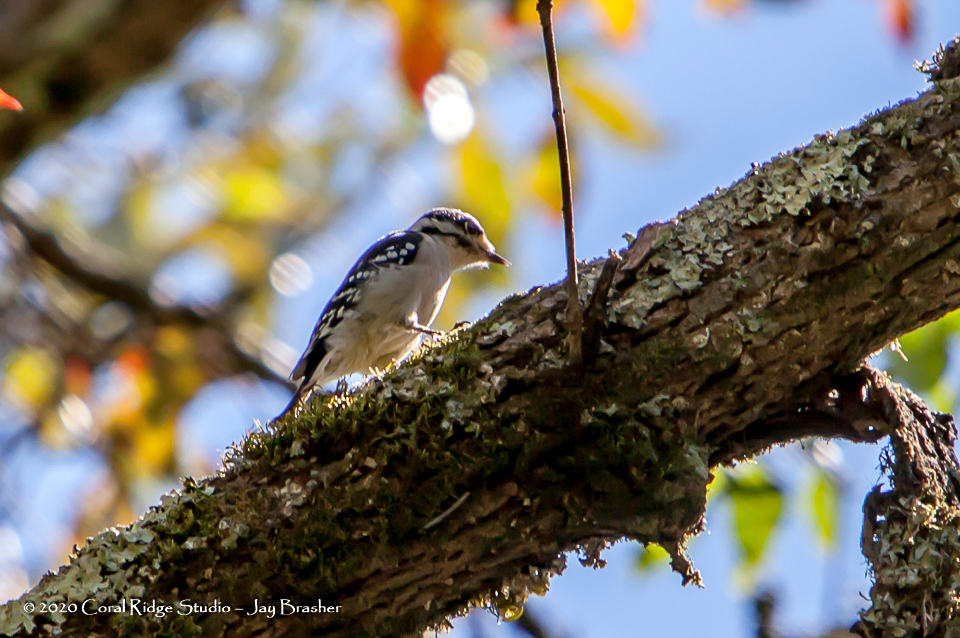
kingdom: Animalia
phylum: Chordata
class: Aves
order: Piciformes
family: Picidae
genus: Dryobates
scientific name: Dryobates pubescens
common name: Downy woodpecker
